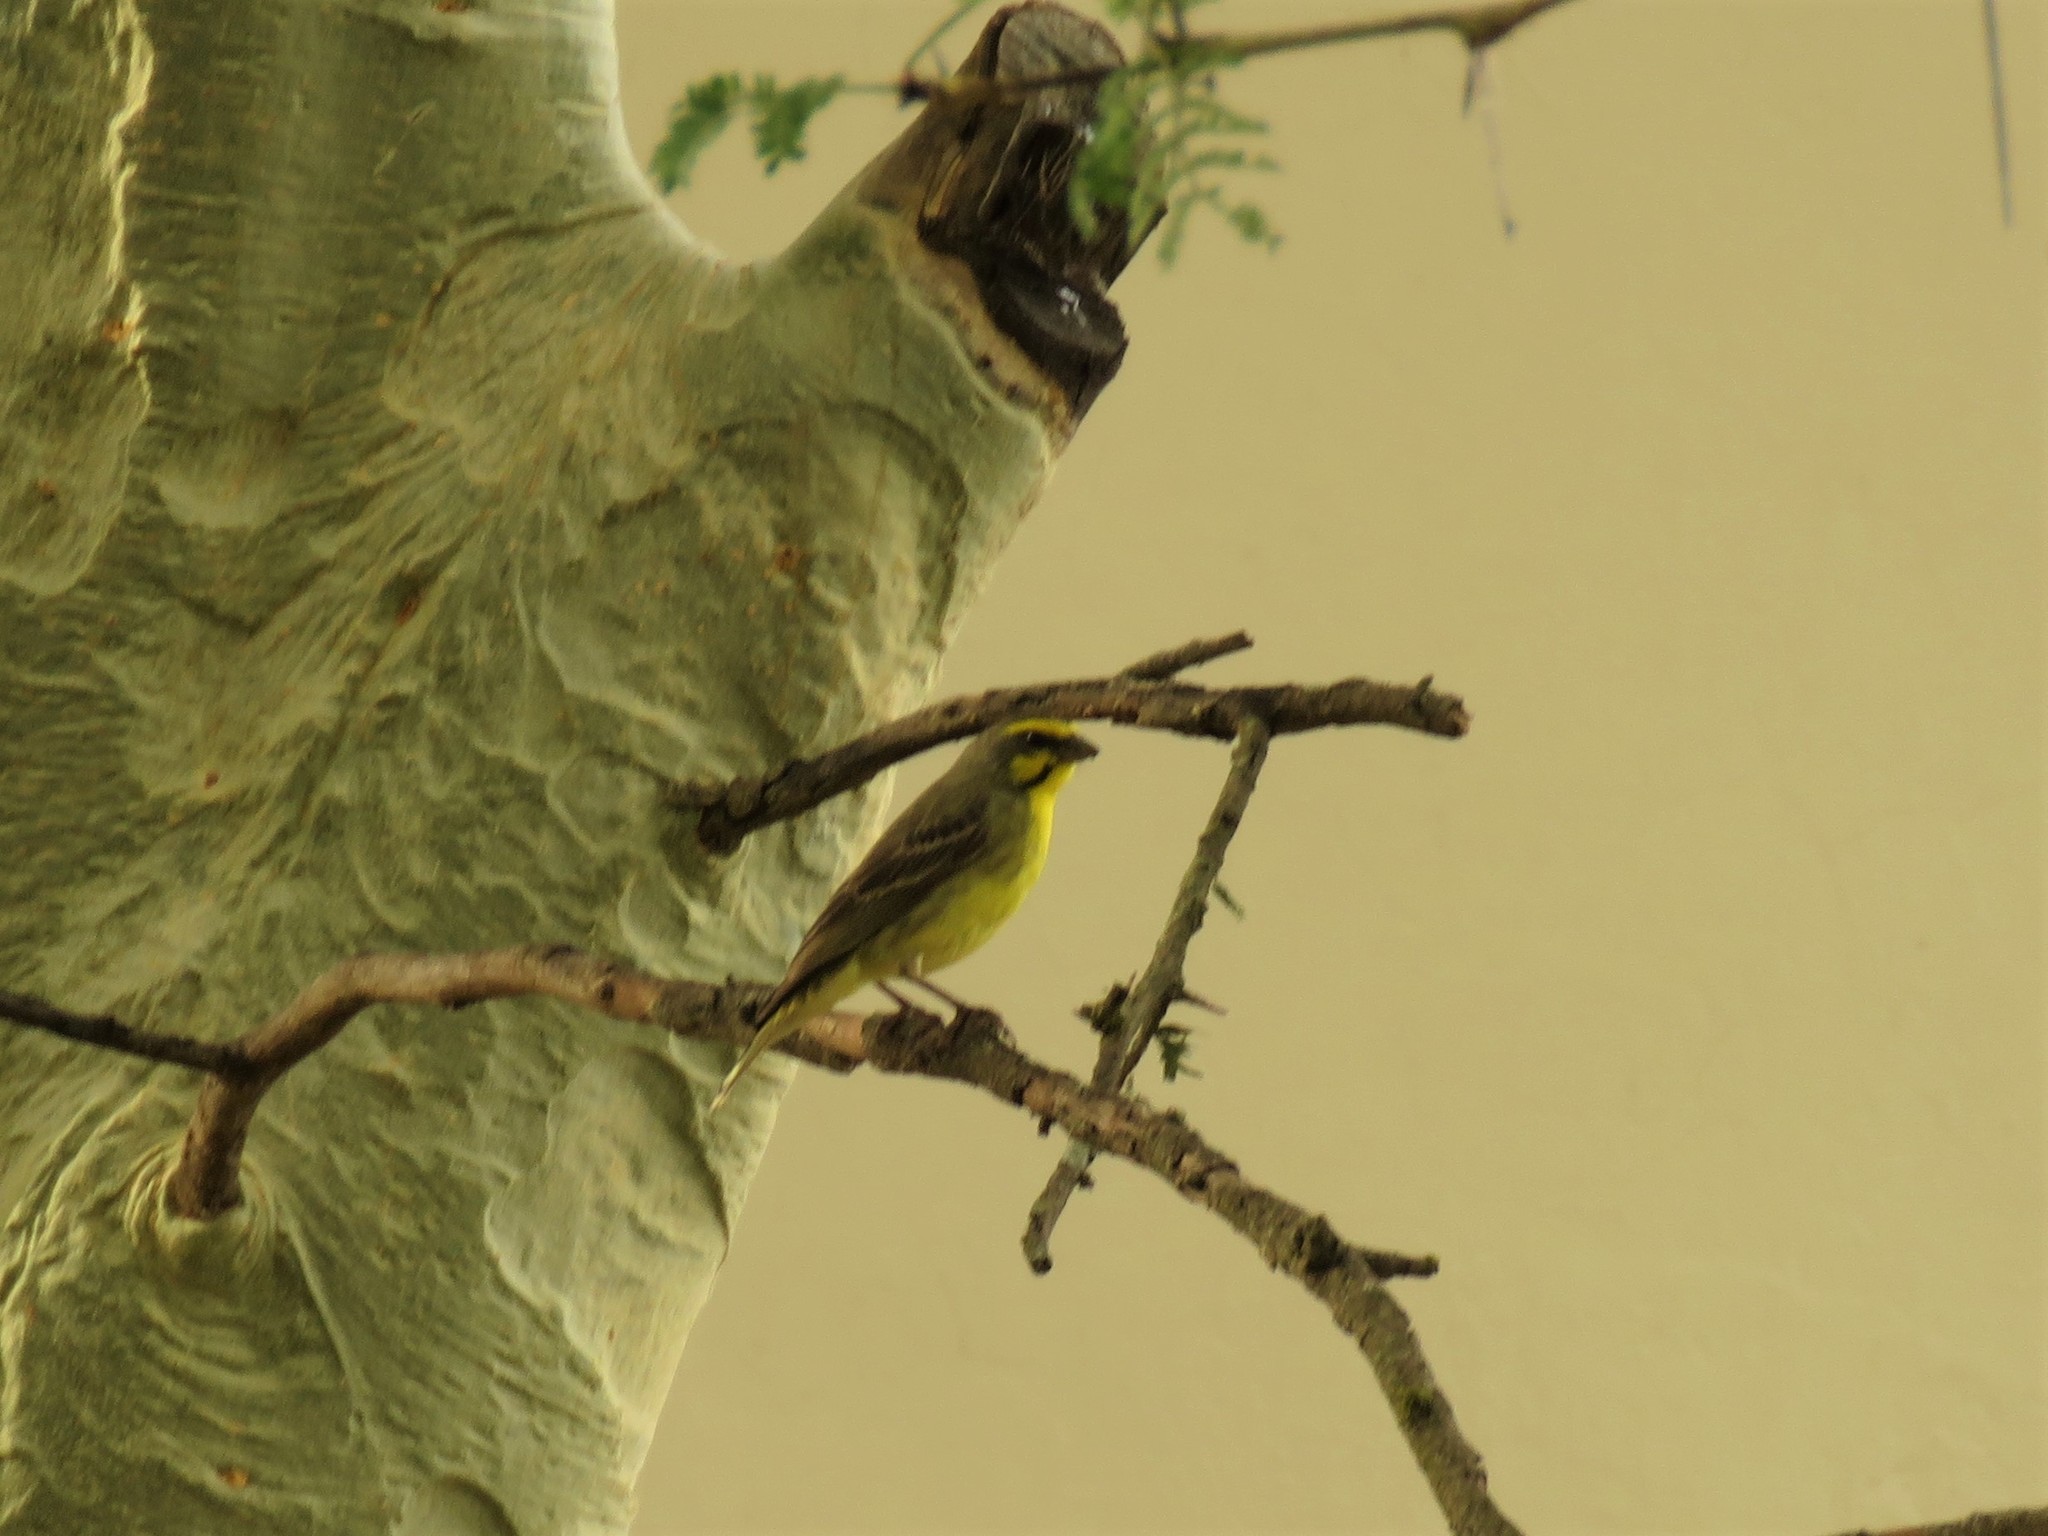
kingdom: Animalia
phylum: Chordata
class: Aves
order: Passeriformes
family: Fringillidae
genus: Crithagra
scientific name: Crithagra mozambica
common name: Yellow-fronted canary
